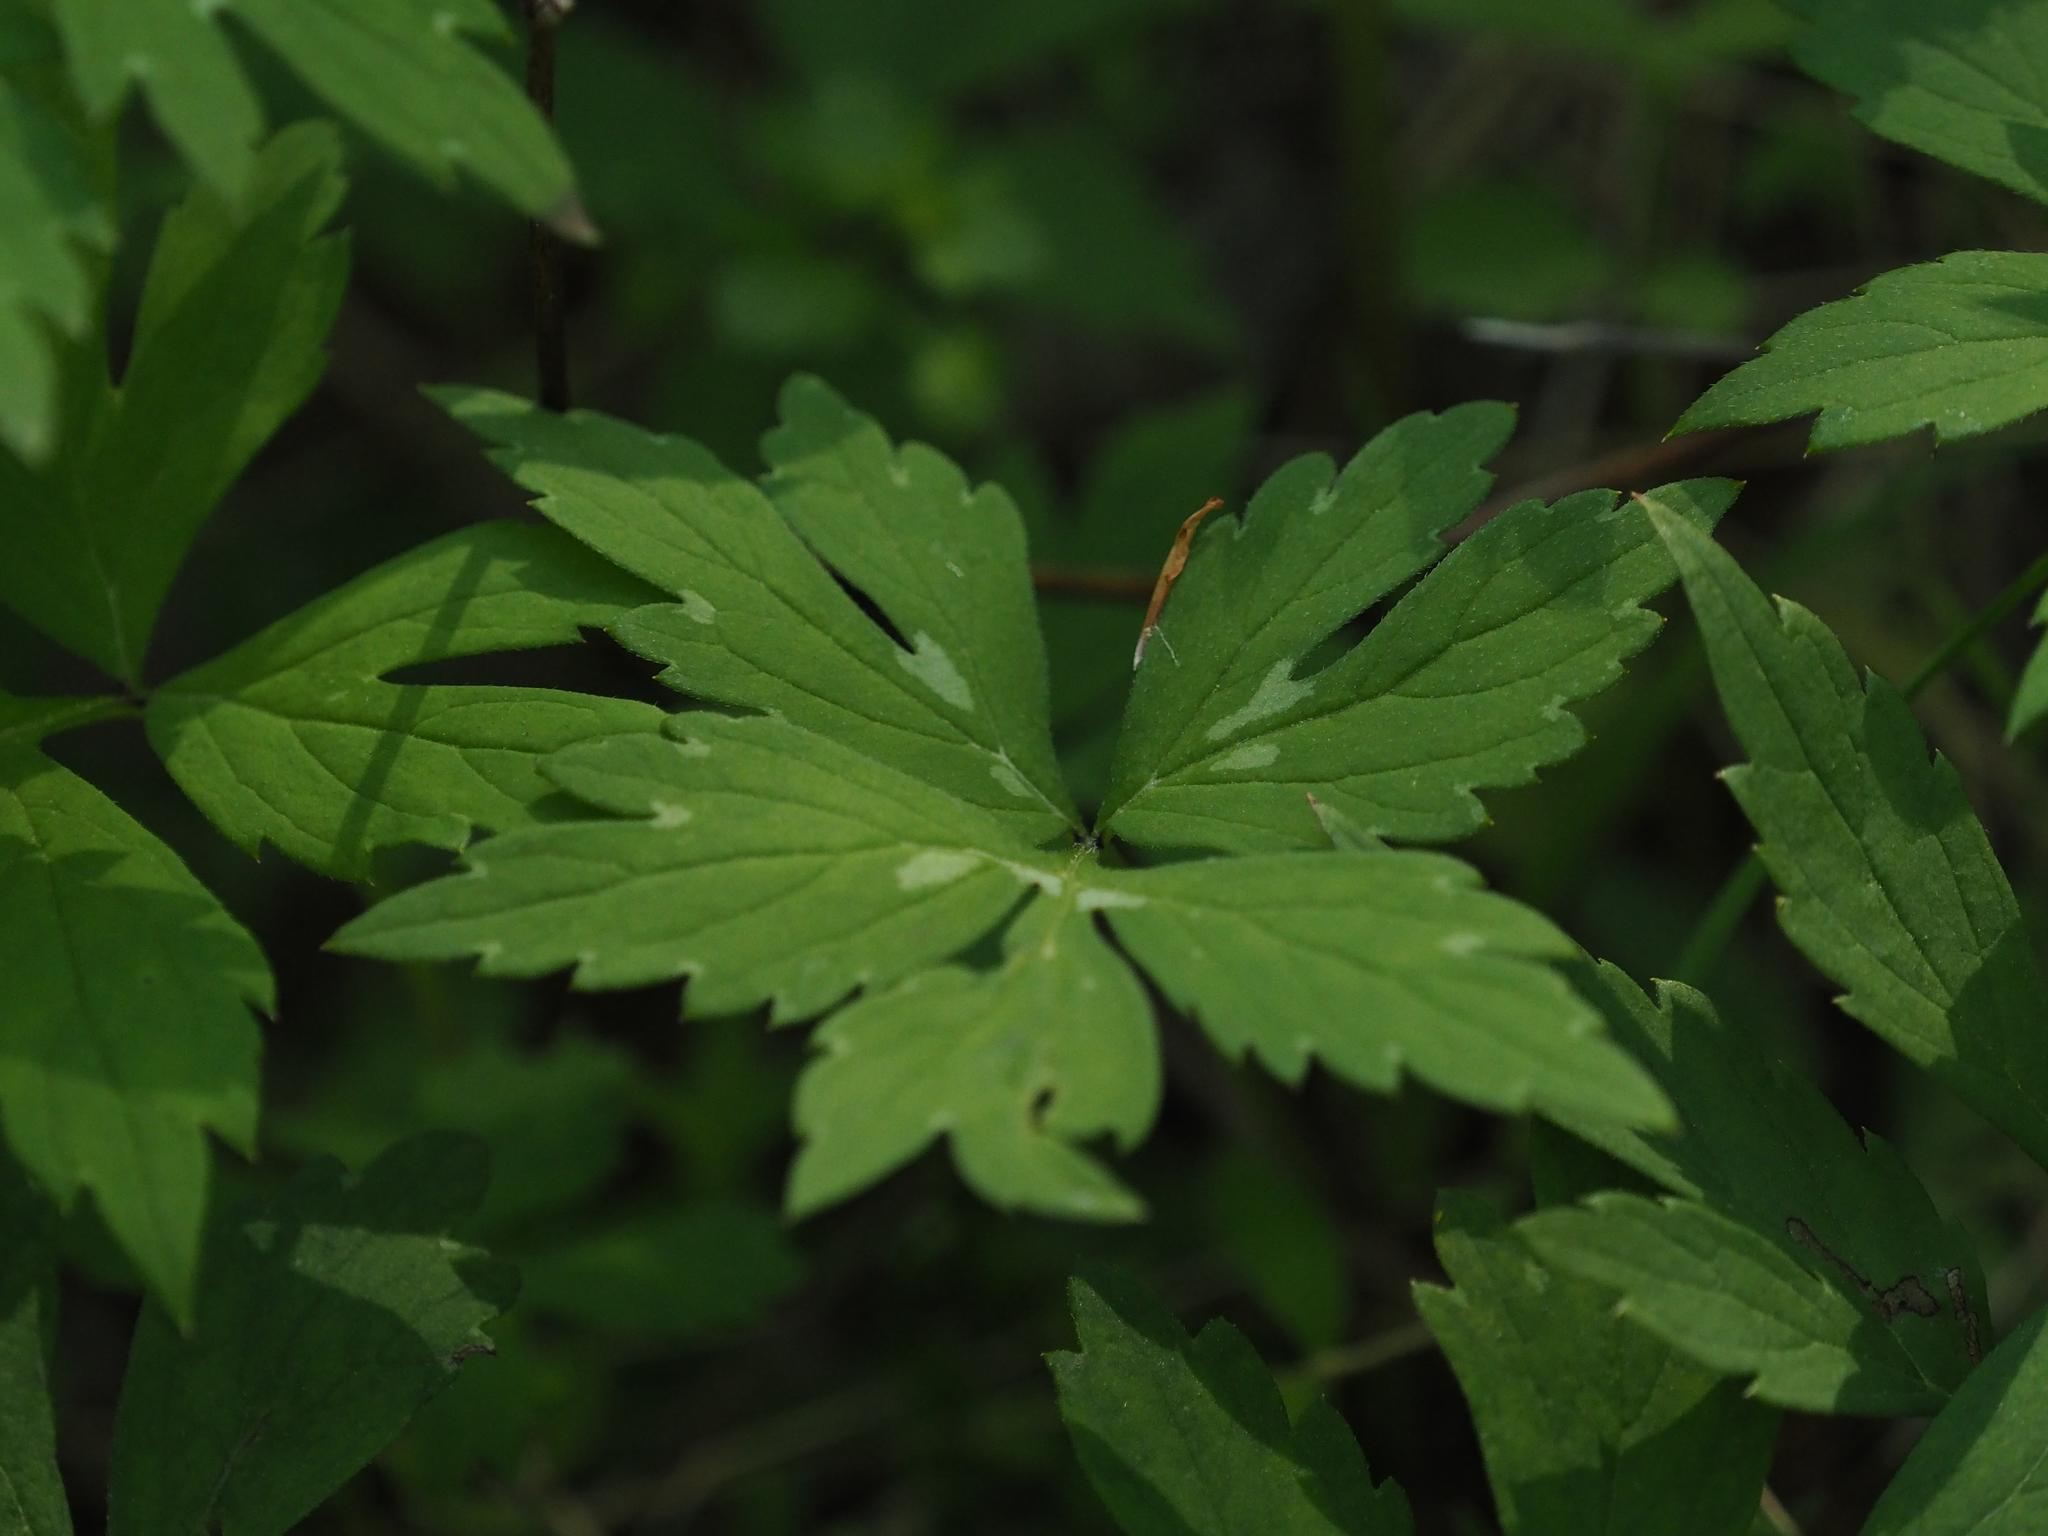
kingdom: Plantae
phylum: Tracheophyta
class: Magnoliopsida
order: Boraginales
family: Hydrophyllaceae
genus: Hydrophyllum
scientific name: Hydrophyllum virginianum
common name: Virginia waterleaf
